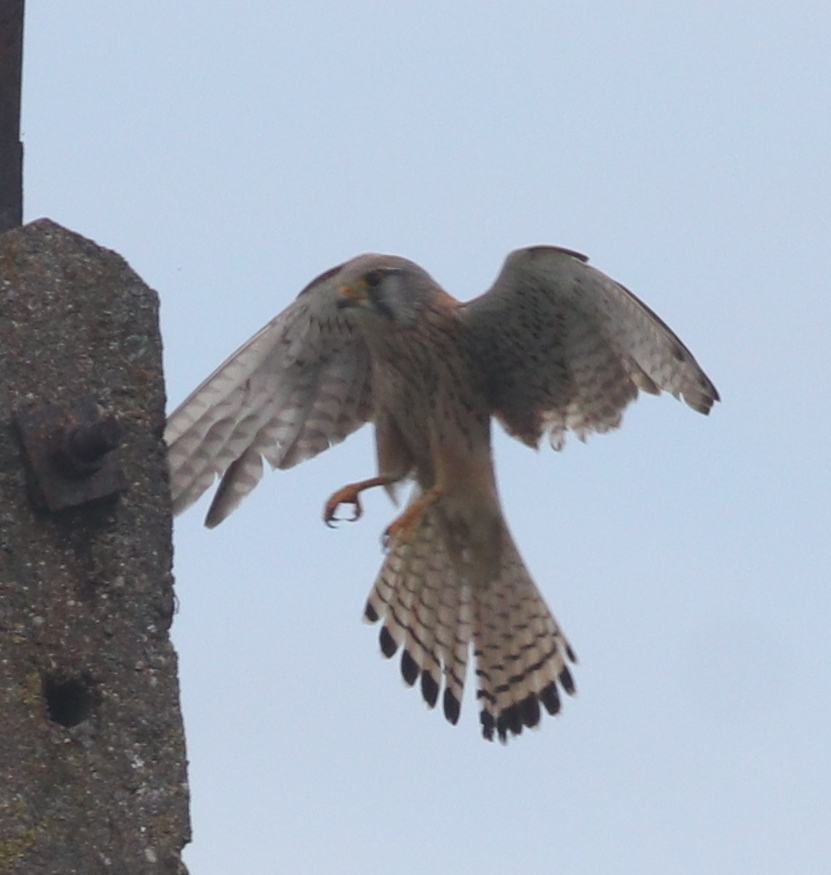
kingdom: Animalia
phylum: Chordata
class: Aves
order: Falconiformes
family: Falconidae
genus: Falco
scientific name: Falco tinnunculus
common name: Common kestrel
